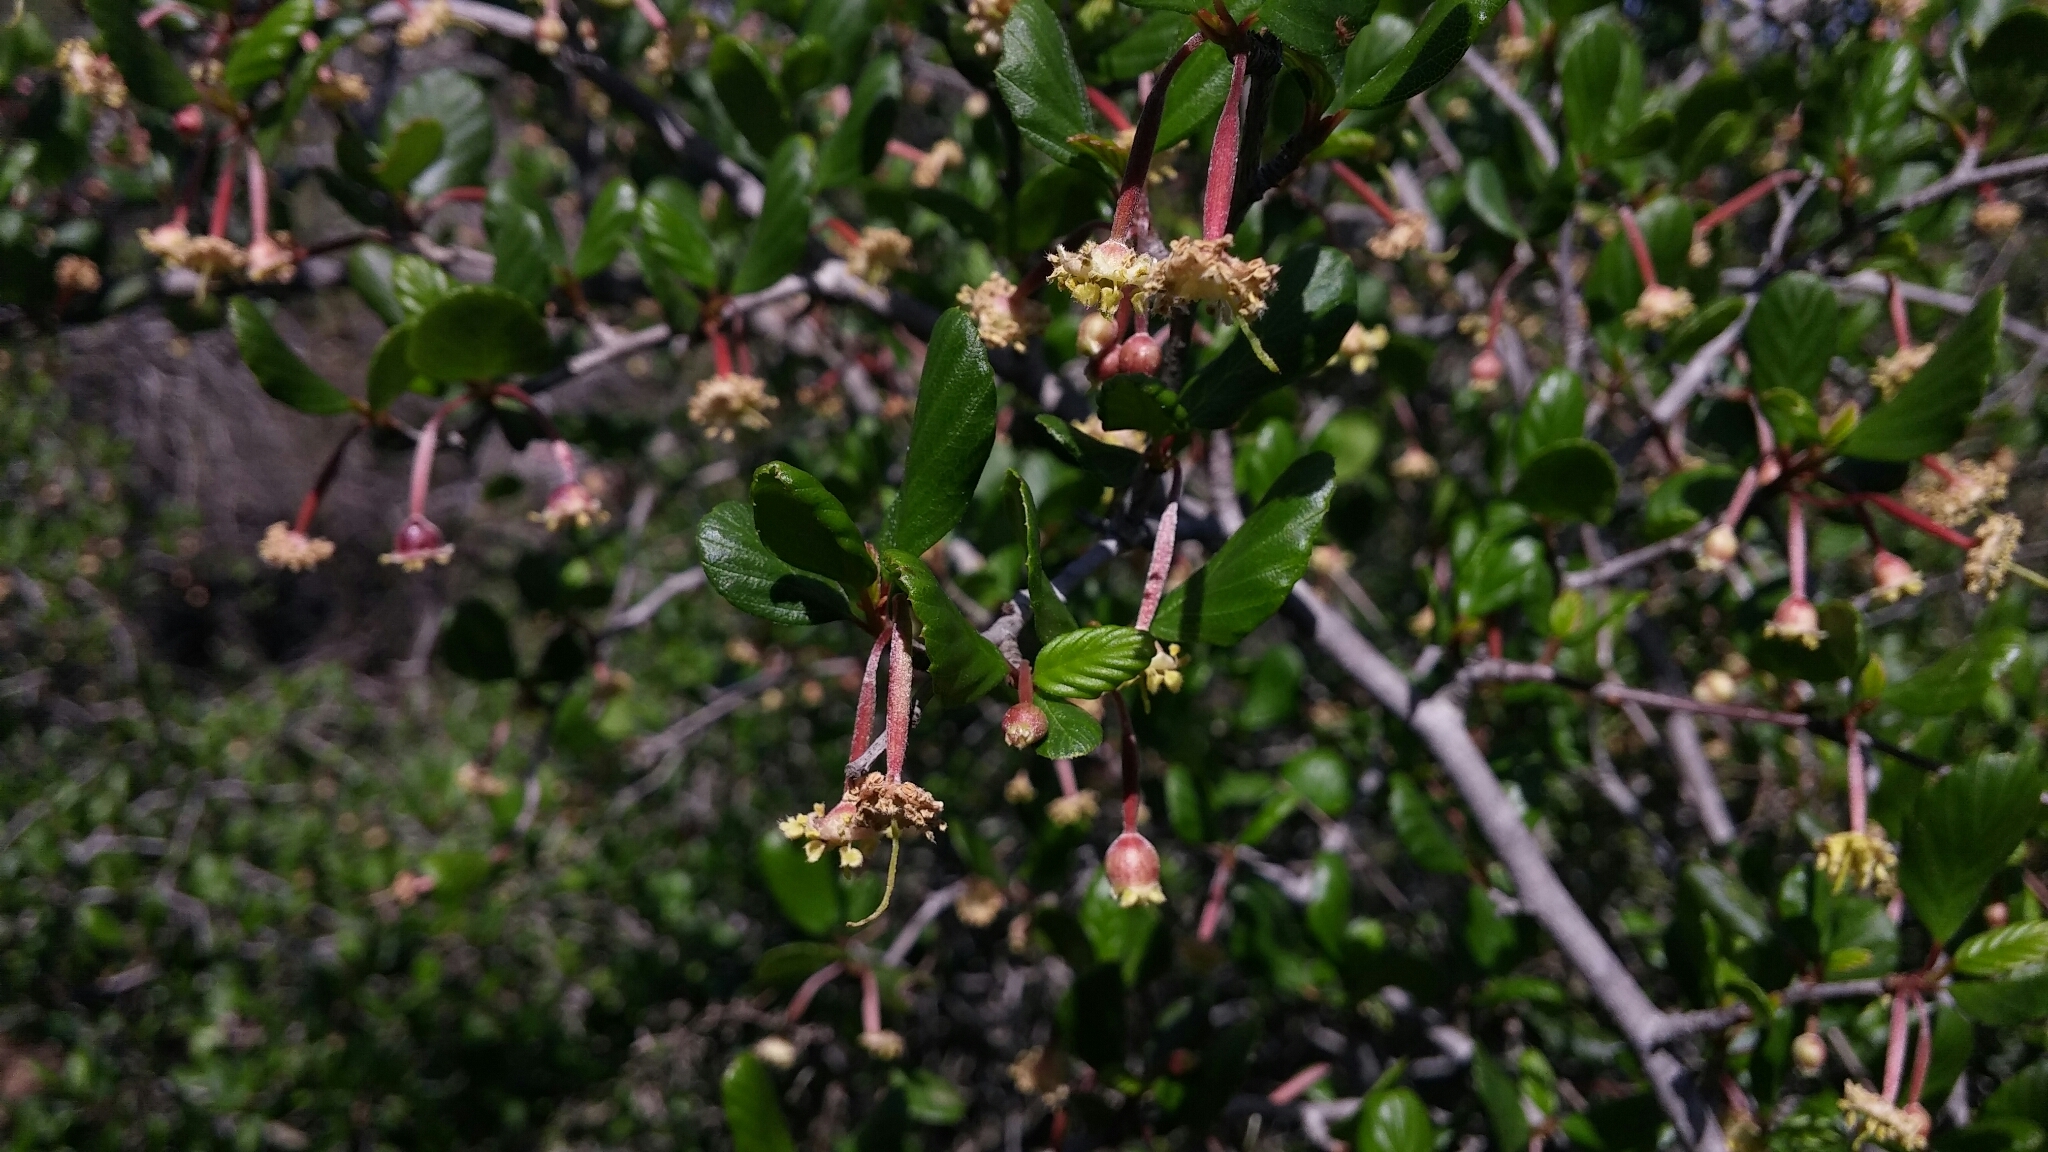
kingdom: Plantae
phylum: Tracheophyta
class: Magnoliopsida
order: Rosales
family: Rosaceae
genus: Cercocarpus
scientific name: Cercocarpus montanus
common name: Alder-leaf cercocarpus
